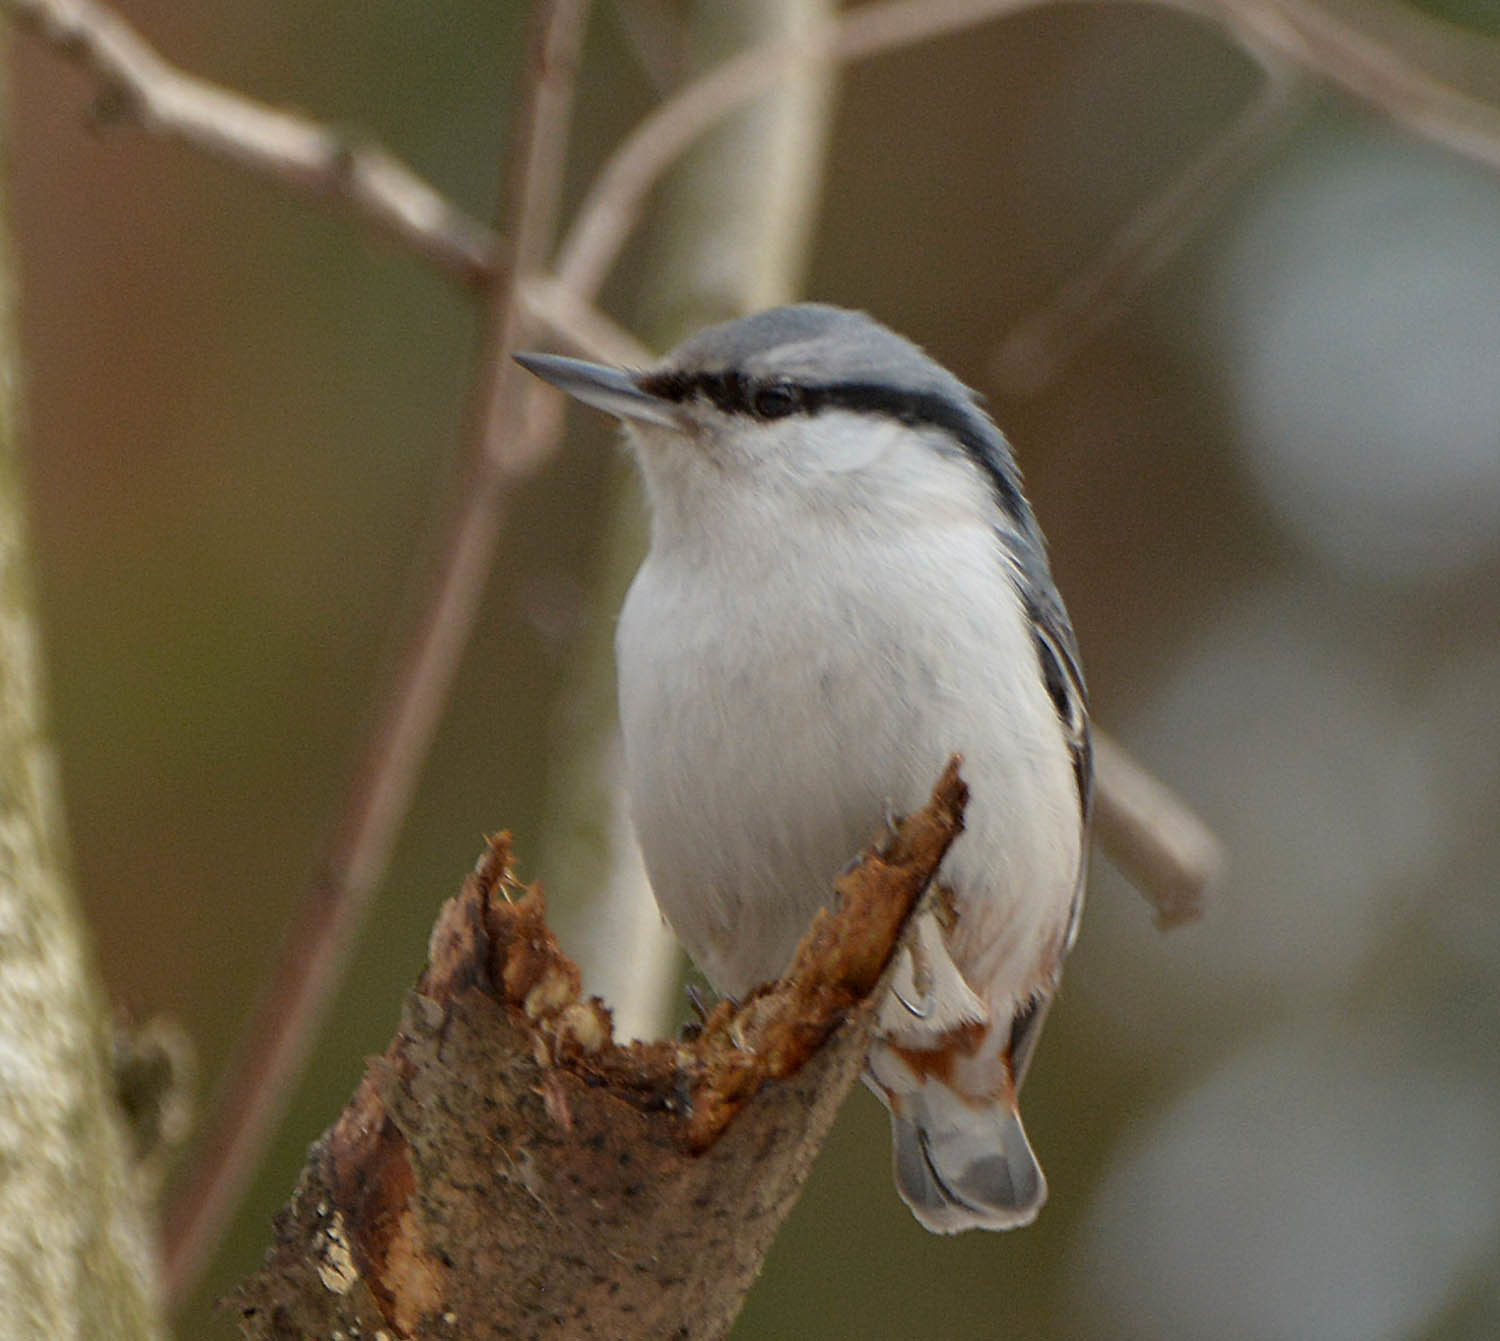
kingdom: Animalia
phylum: Chordata
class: Aves
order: Passeriformes
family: Sittidae
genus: Sitta
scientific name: Sitta europaea
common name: Eurasian nuthatch
